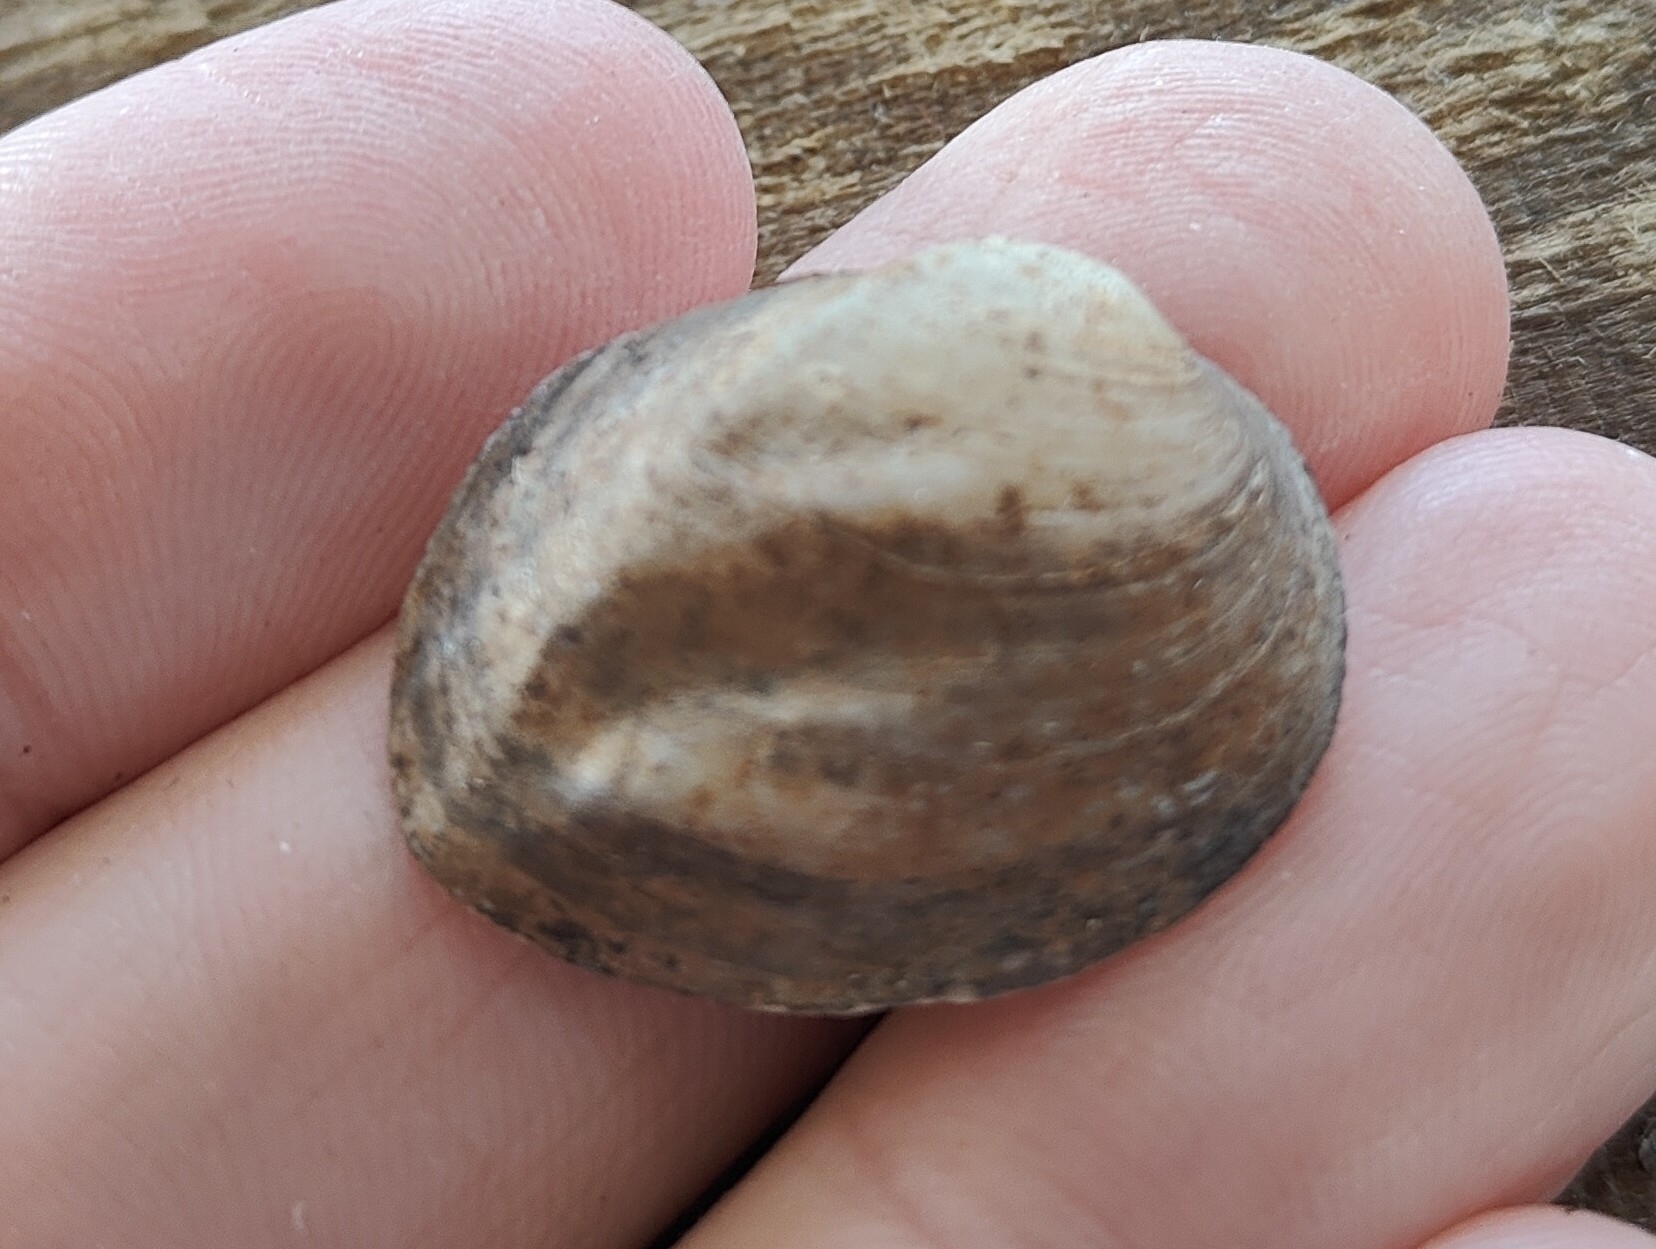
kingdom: Animalia
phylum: Mollusca
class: Bivalvia
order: Unionida
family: Unionidae
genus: Amblema
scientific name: Amblema plicata
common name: Threeridge
